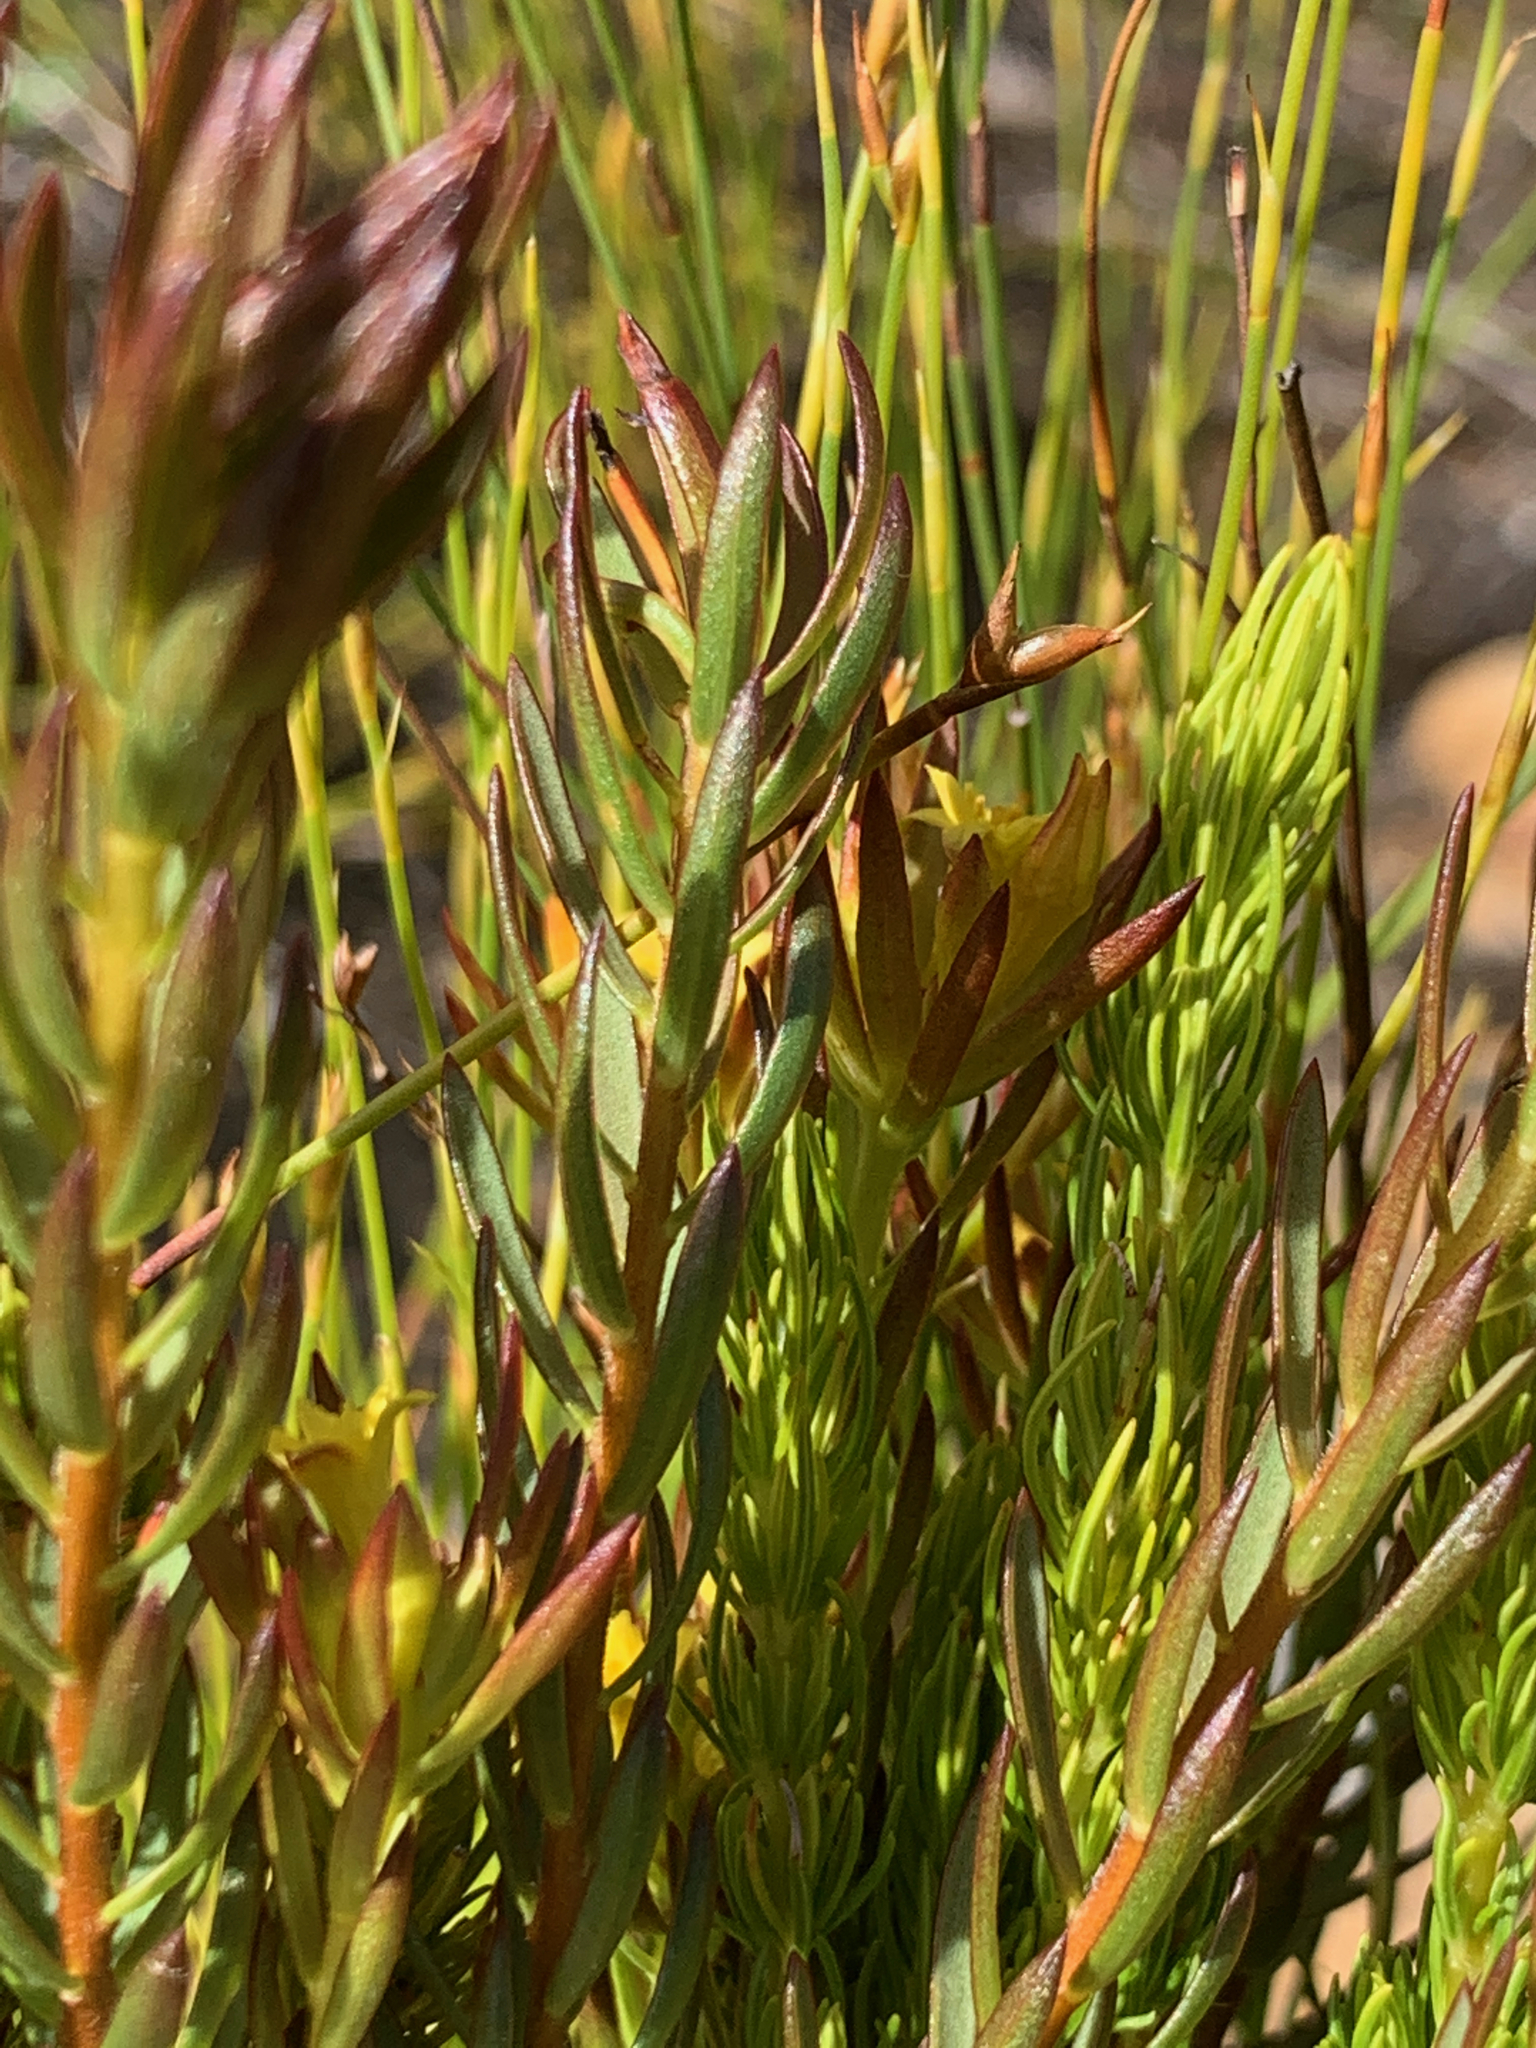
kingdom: Plantae
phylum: Tracheophyta
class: Magnoliopsida
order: Malvales
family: Thymelaeaceae
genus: Gnidia
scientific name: Gnidia juniperifolia
